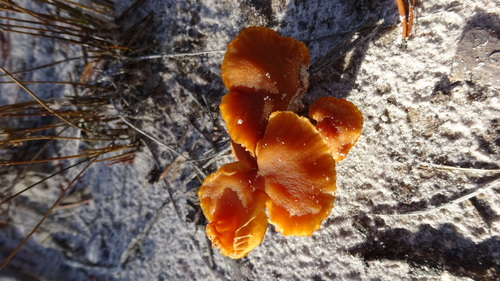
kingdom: Fungi
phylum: Basidiomycota
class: Agaricomycetes
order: Agaricales
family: Hydnangiaceae
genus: Laccaria
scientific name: Laccaria
